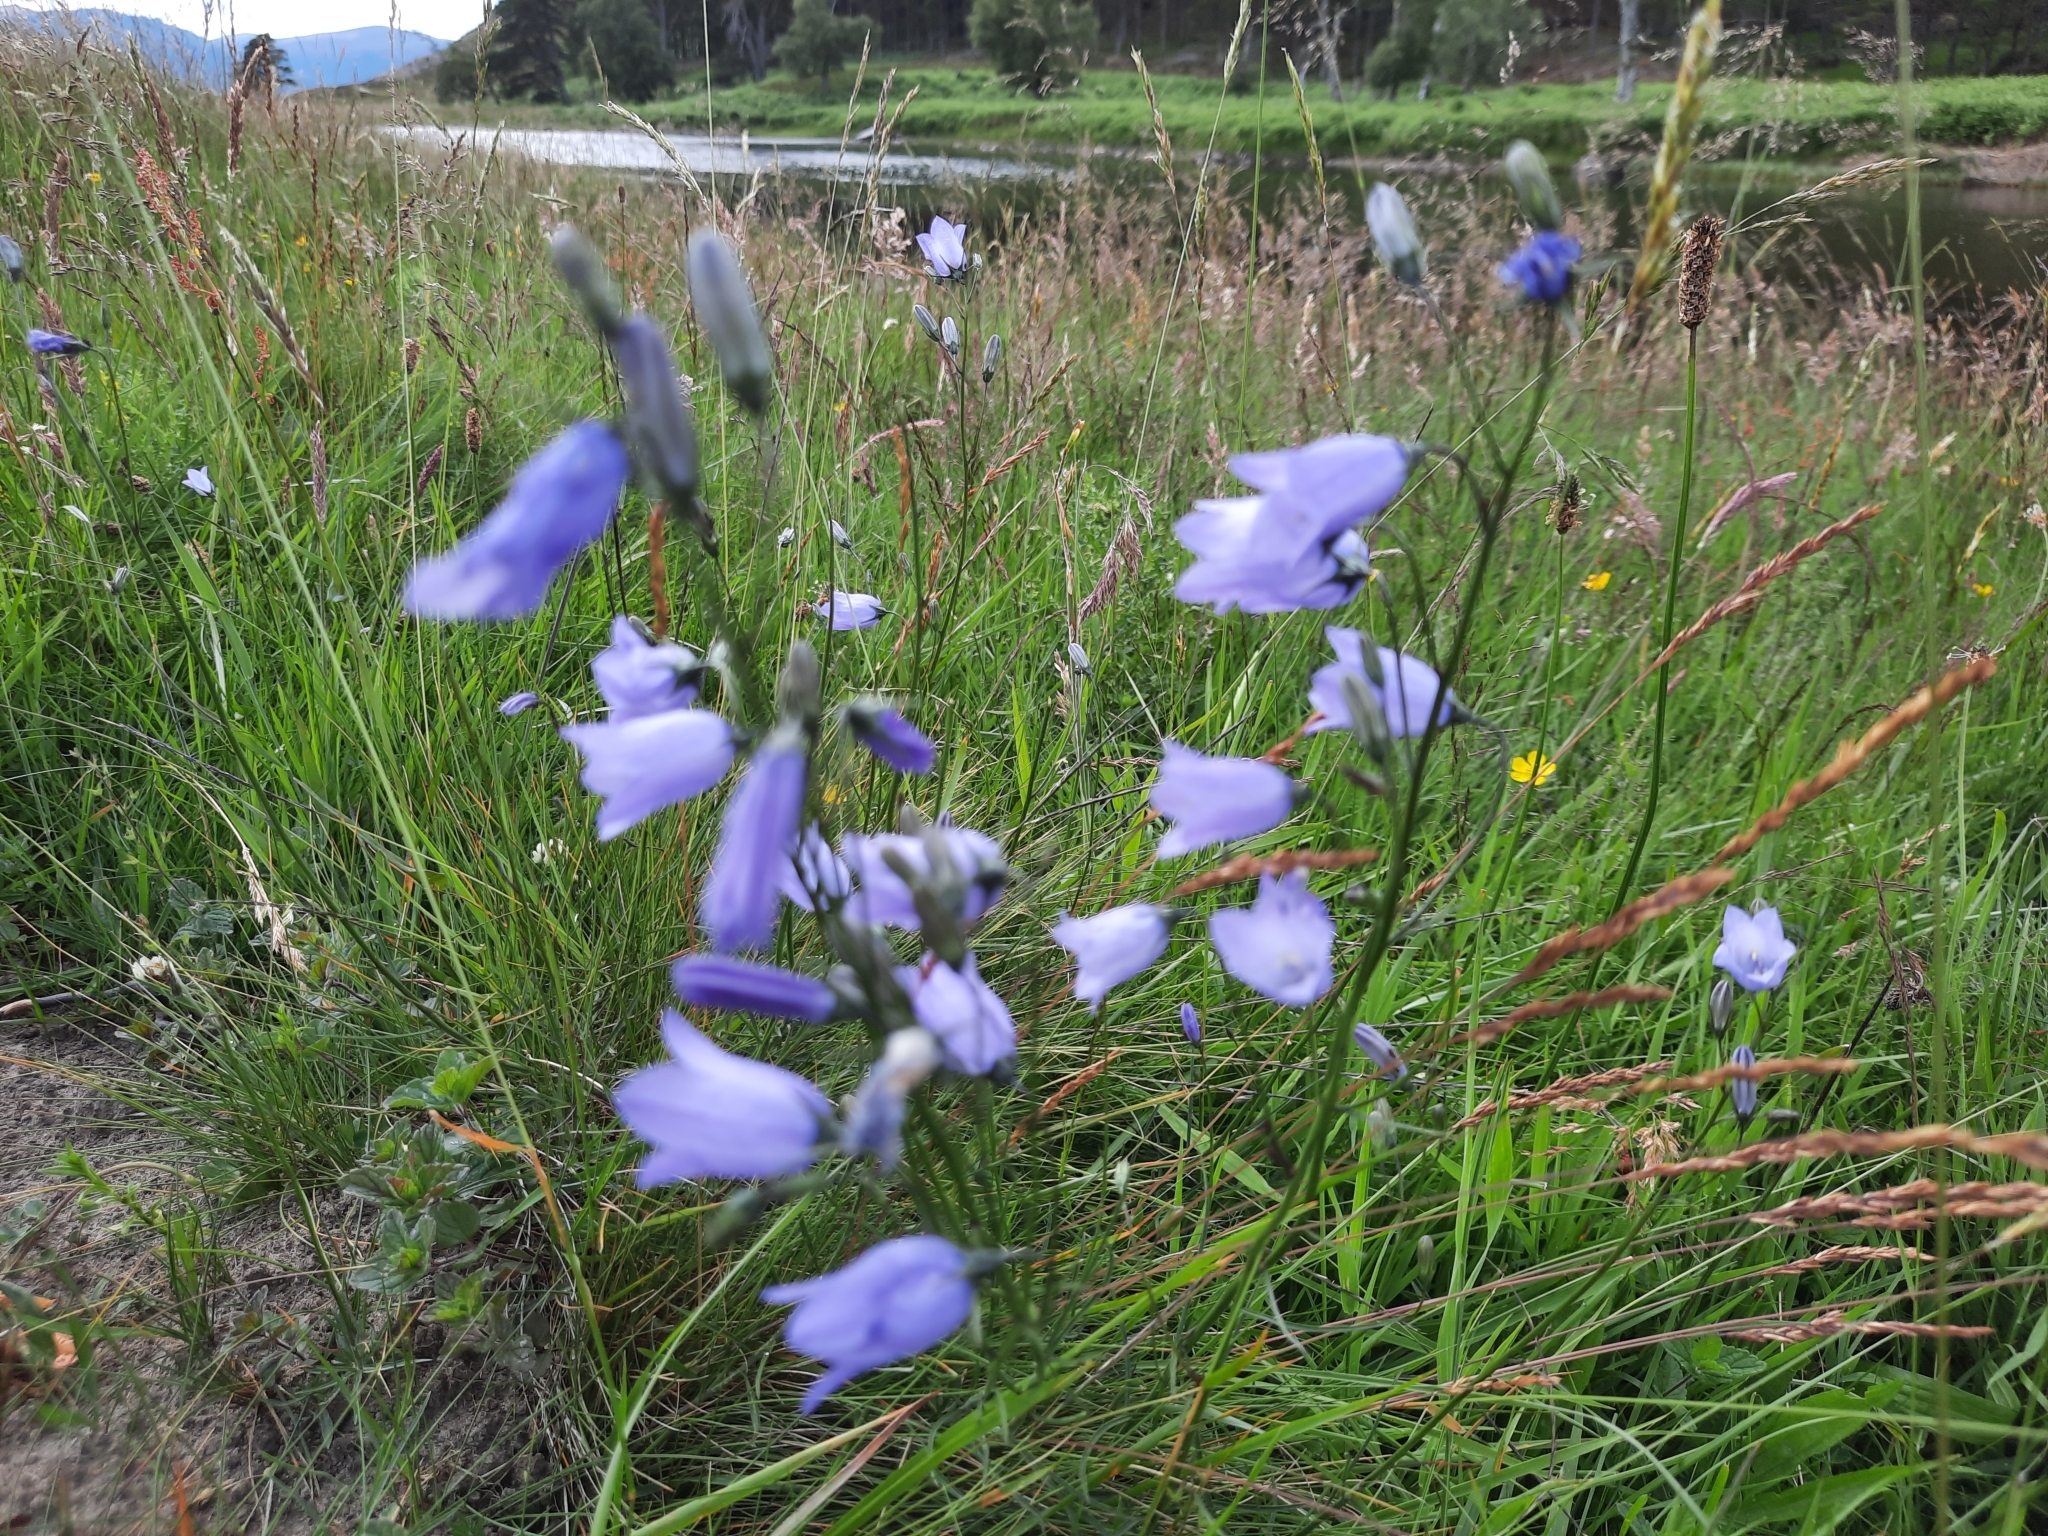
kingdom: Plantae
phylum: Tracheophyta
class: Magnoliopsida
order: Asterales
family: Campanulaceae
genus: Campanula
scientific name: Campanula rotundifolia
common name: Harebell
